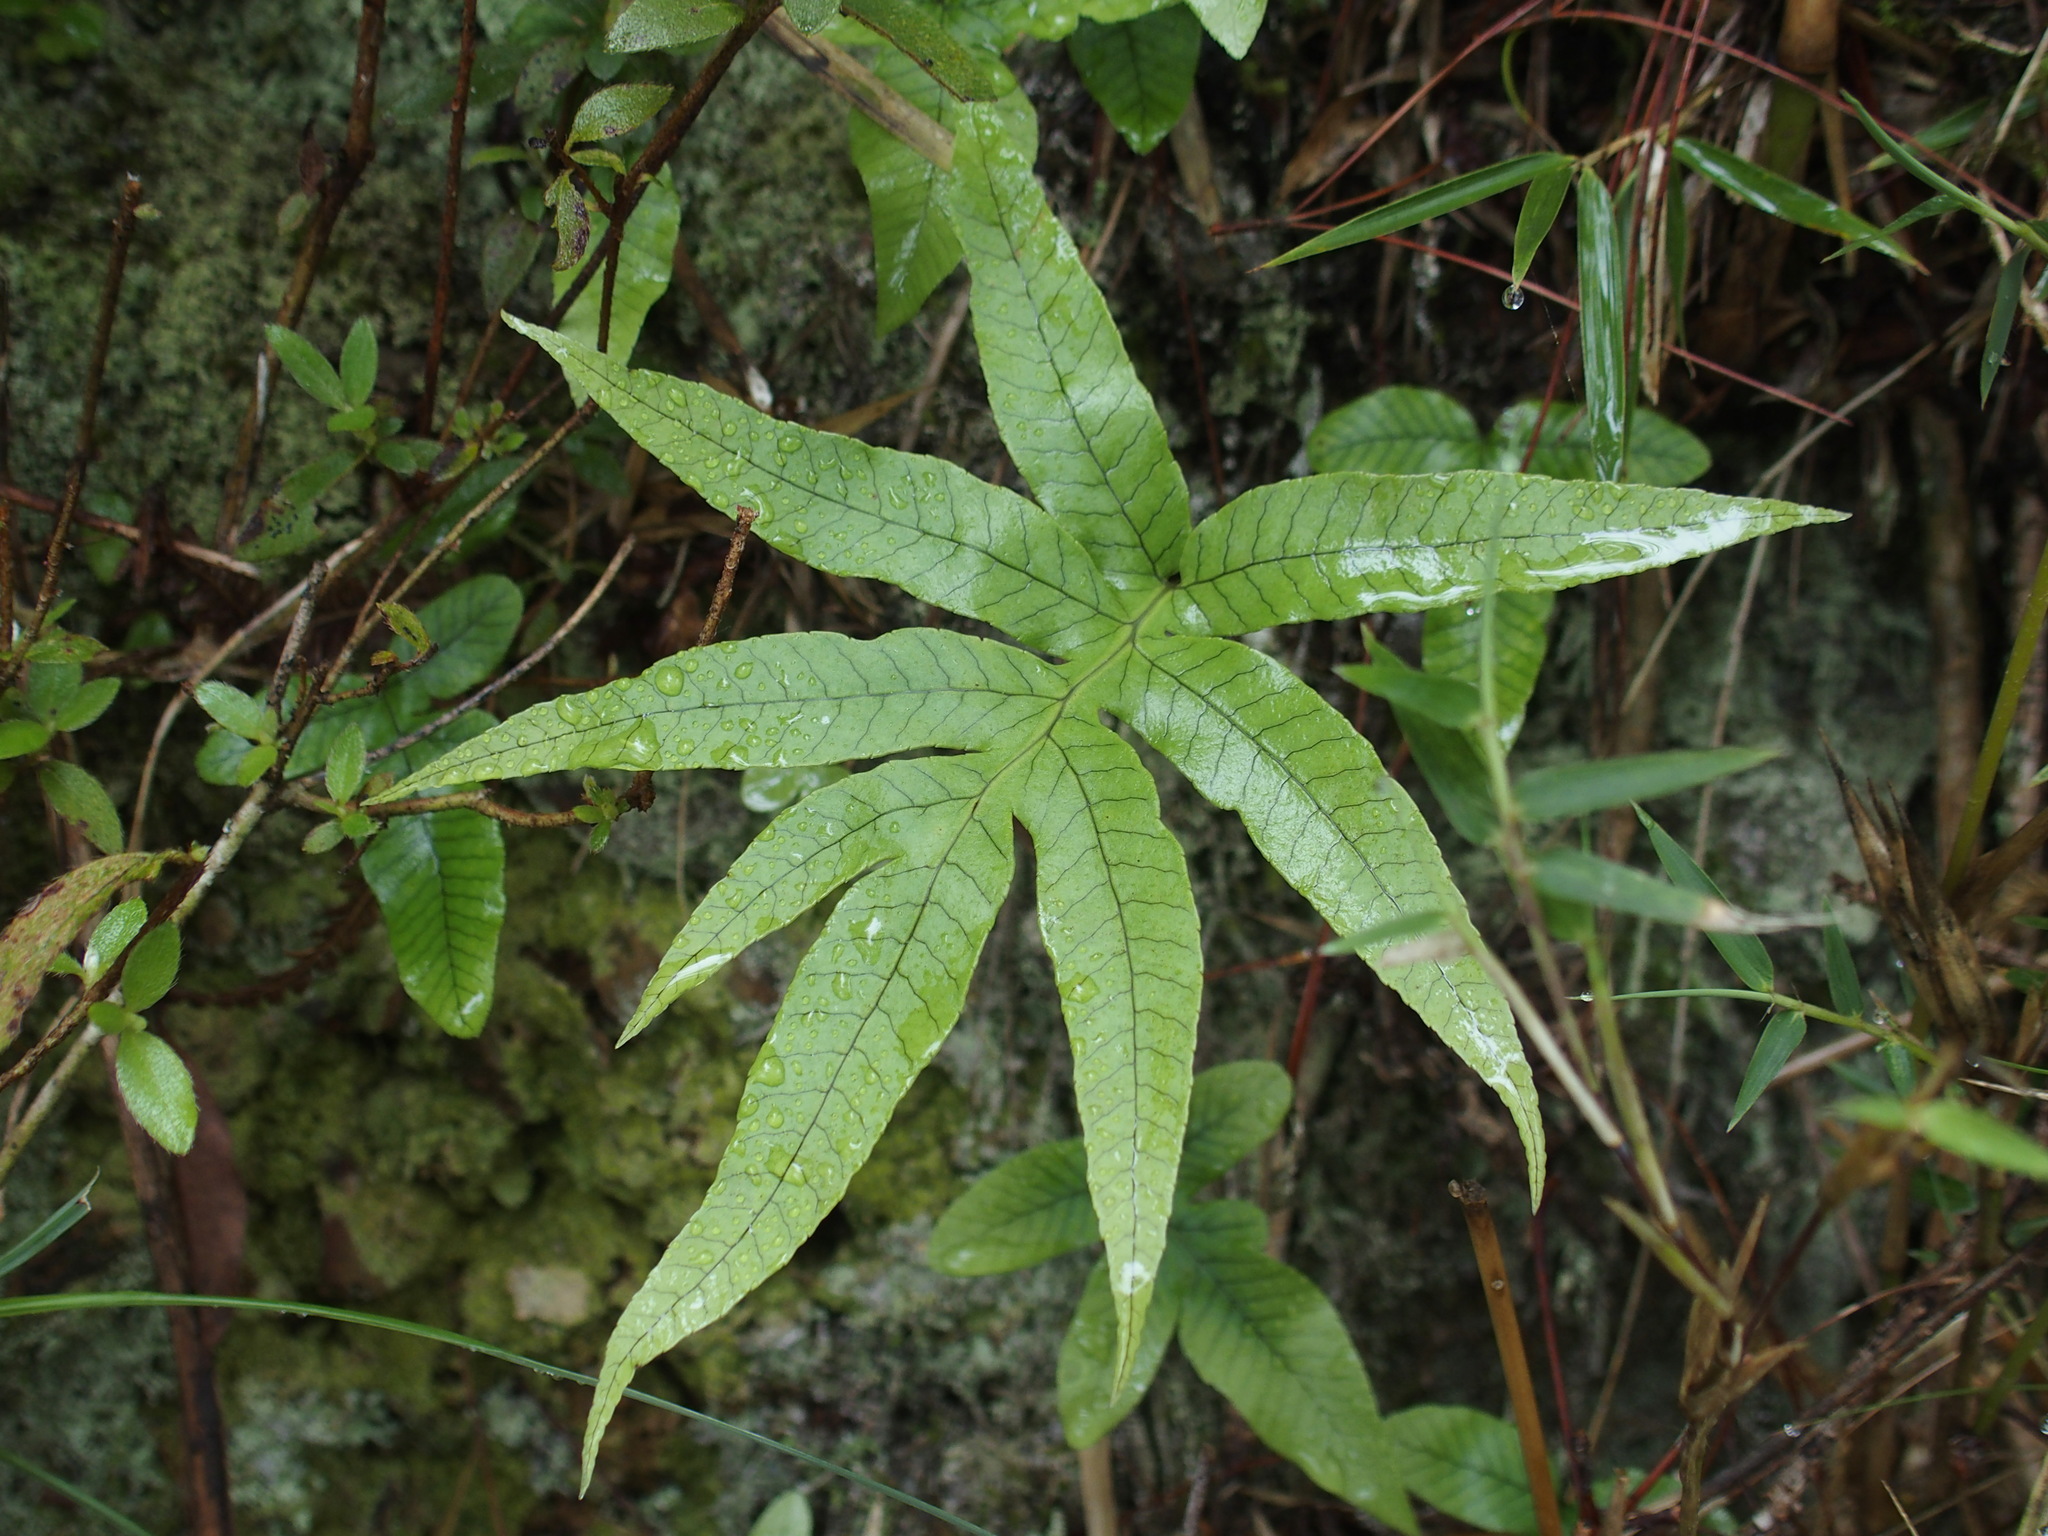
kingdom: Plantae
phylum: Tracheophyta
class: Polypodiopsida
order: Polypodiales
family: Polypodiaceae
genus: Selliguea
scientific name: Selliguea quasidivaricata
